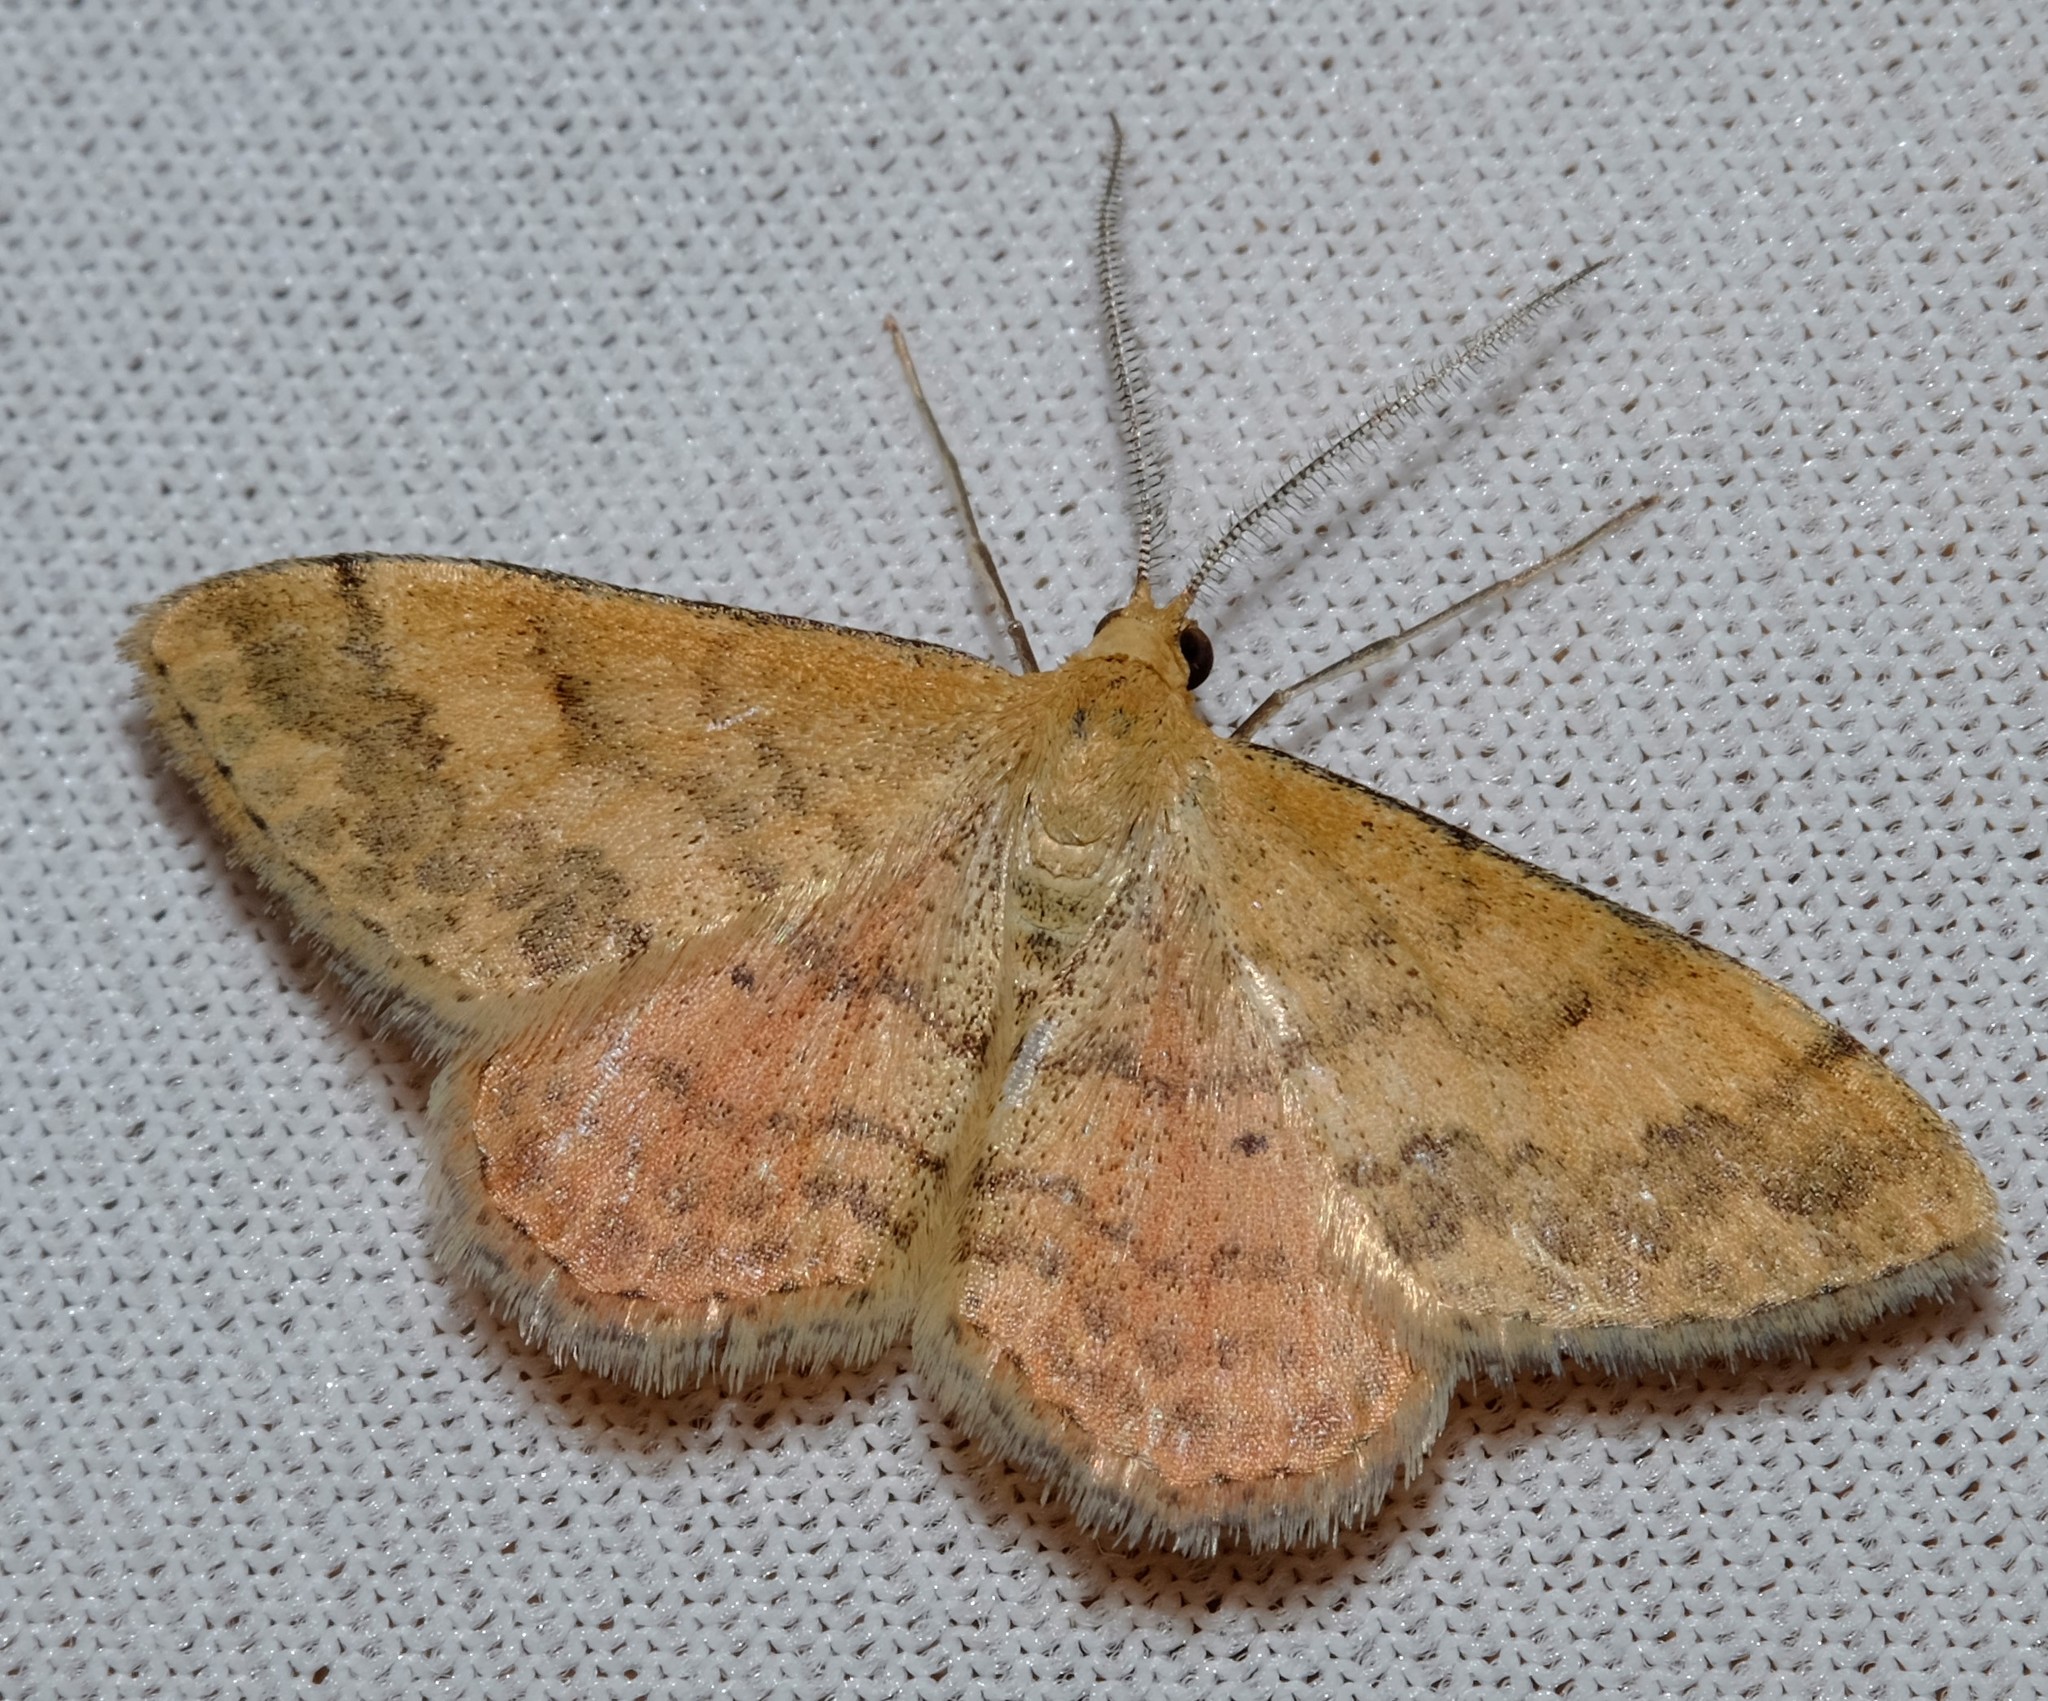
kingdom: Animalia
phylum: Arthropoda
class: Insecta
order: Lepidoptera
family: Geometridae
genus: Scopula
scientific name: Scopula rubraria
